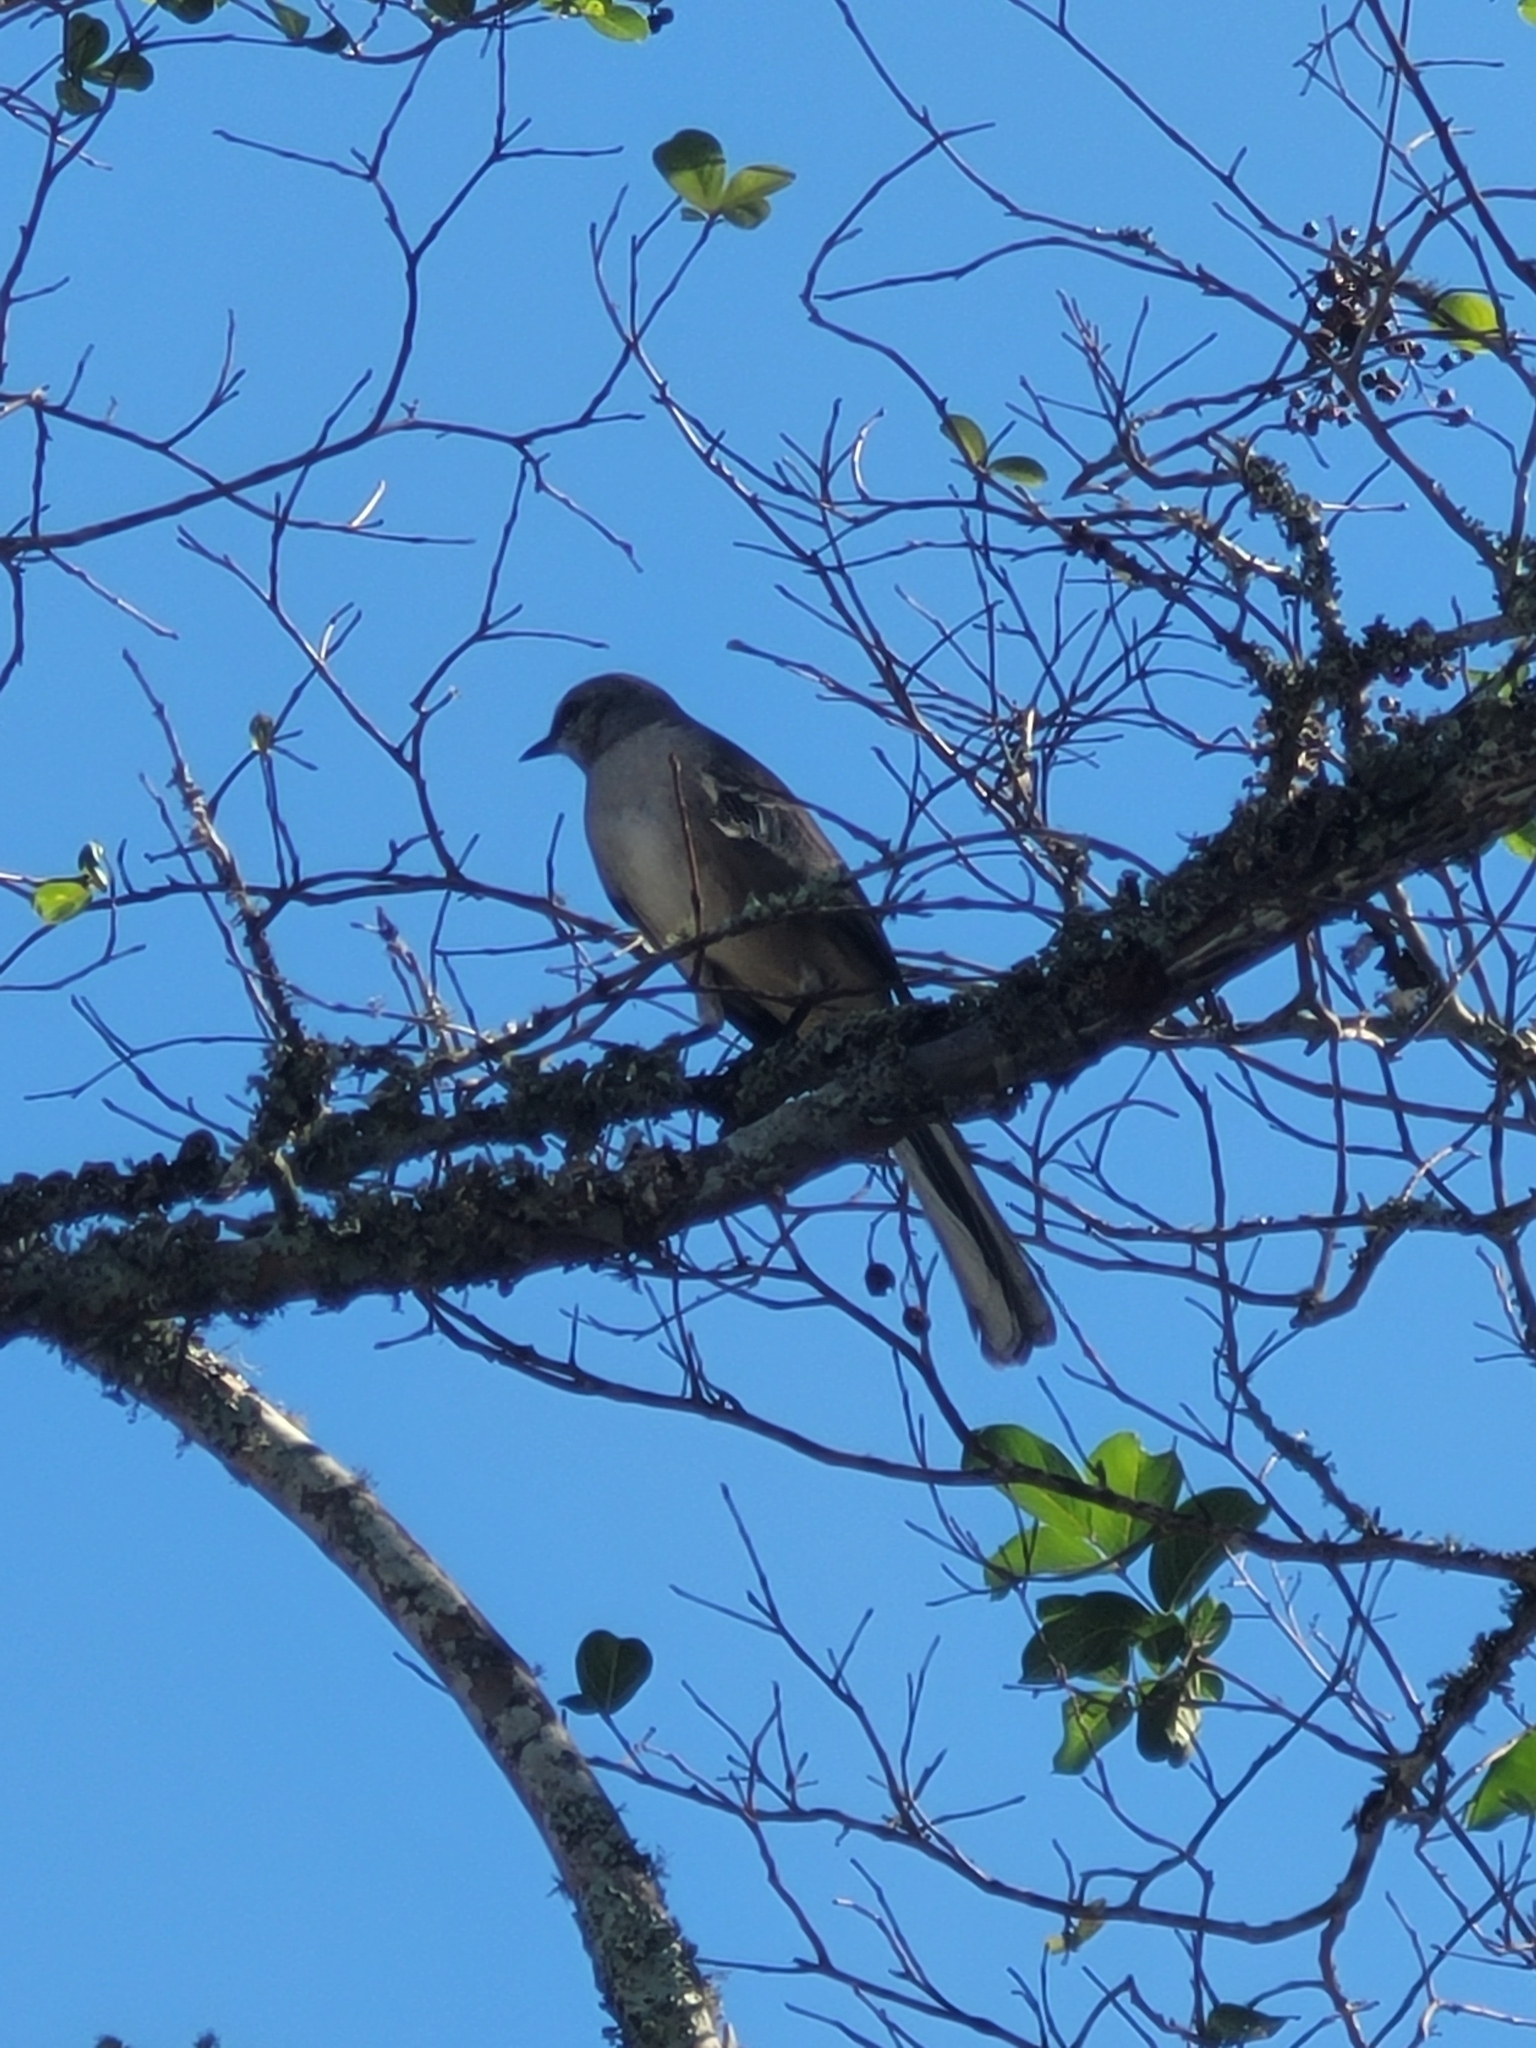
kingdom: Animalia
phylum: Chordata
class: Aves
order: Passeriformes
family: Mimidae
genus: Mimus
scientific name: Mimus polyglottos
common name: Northern mockingbird
